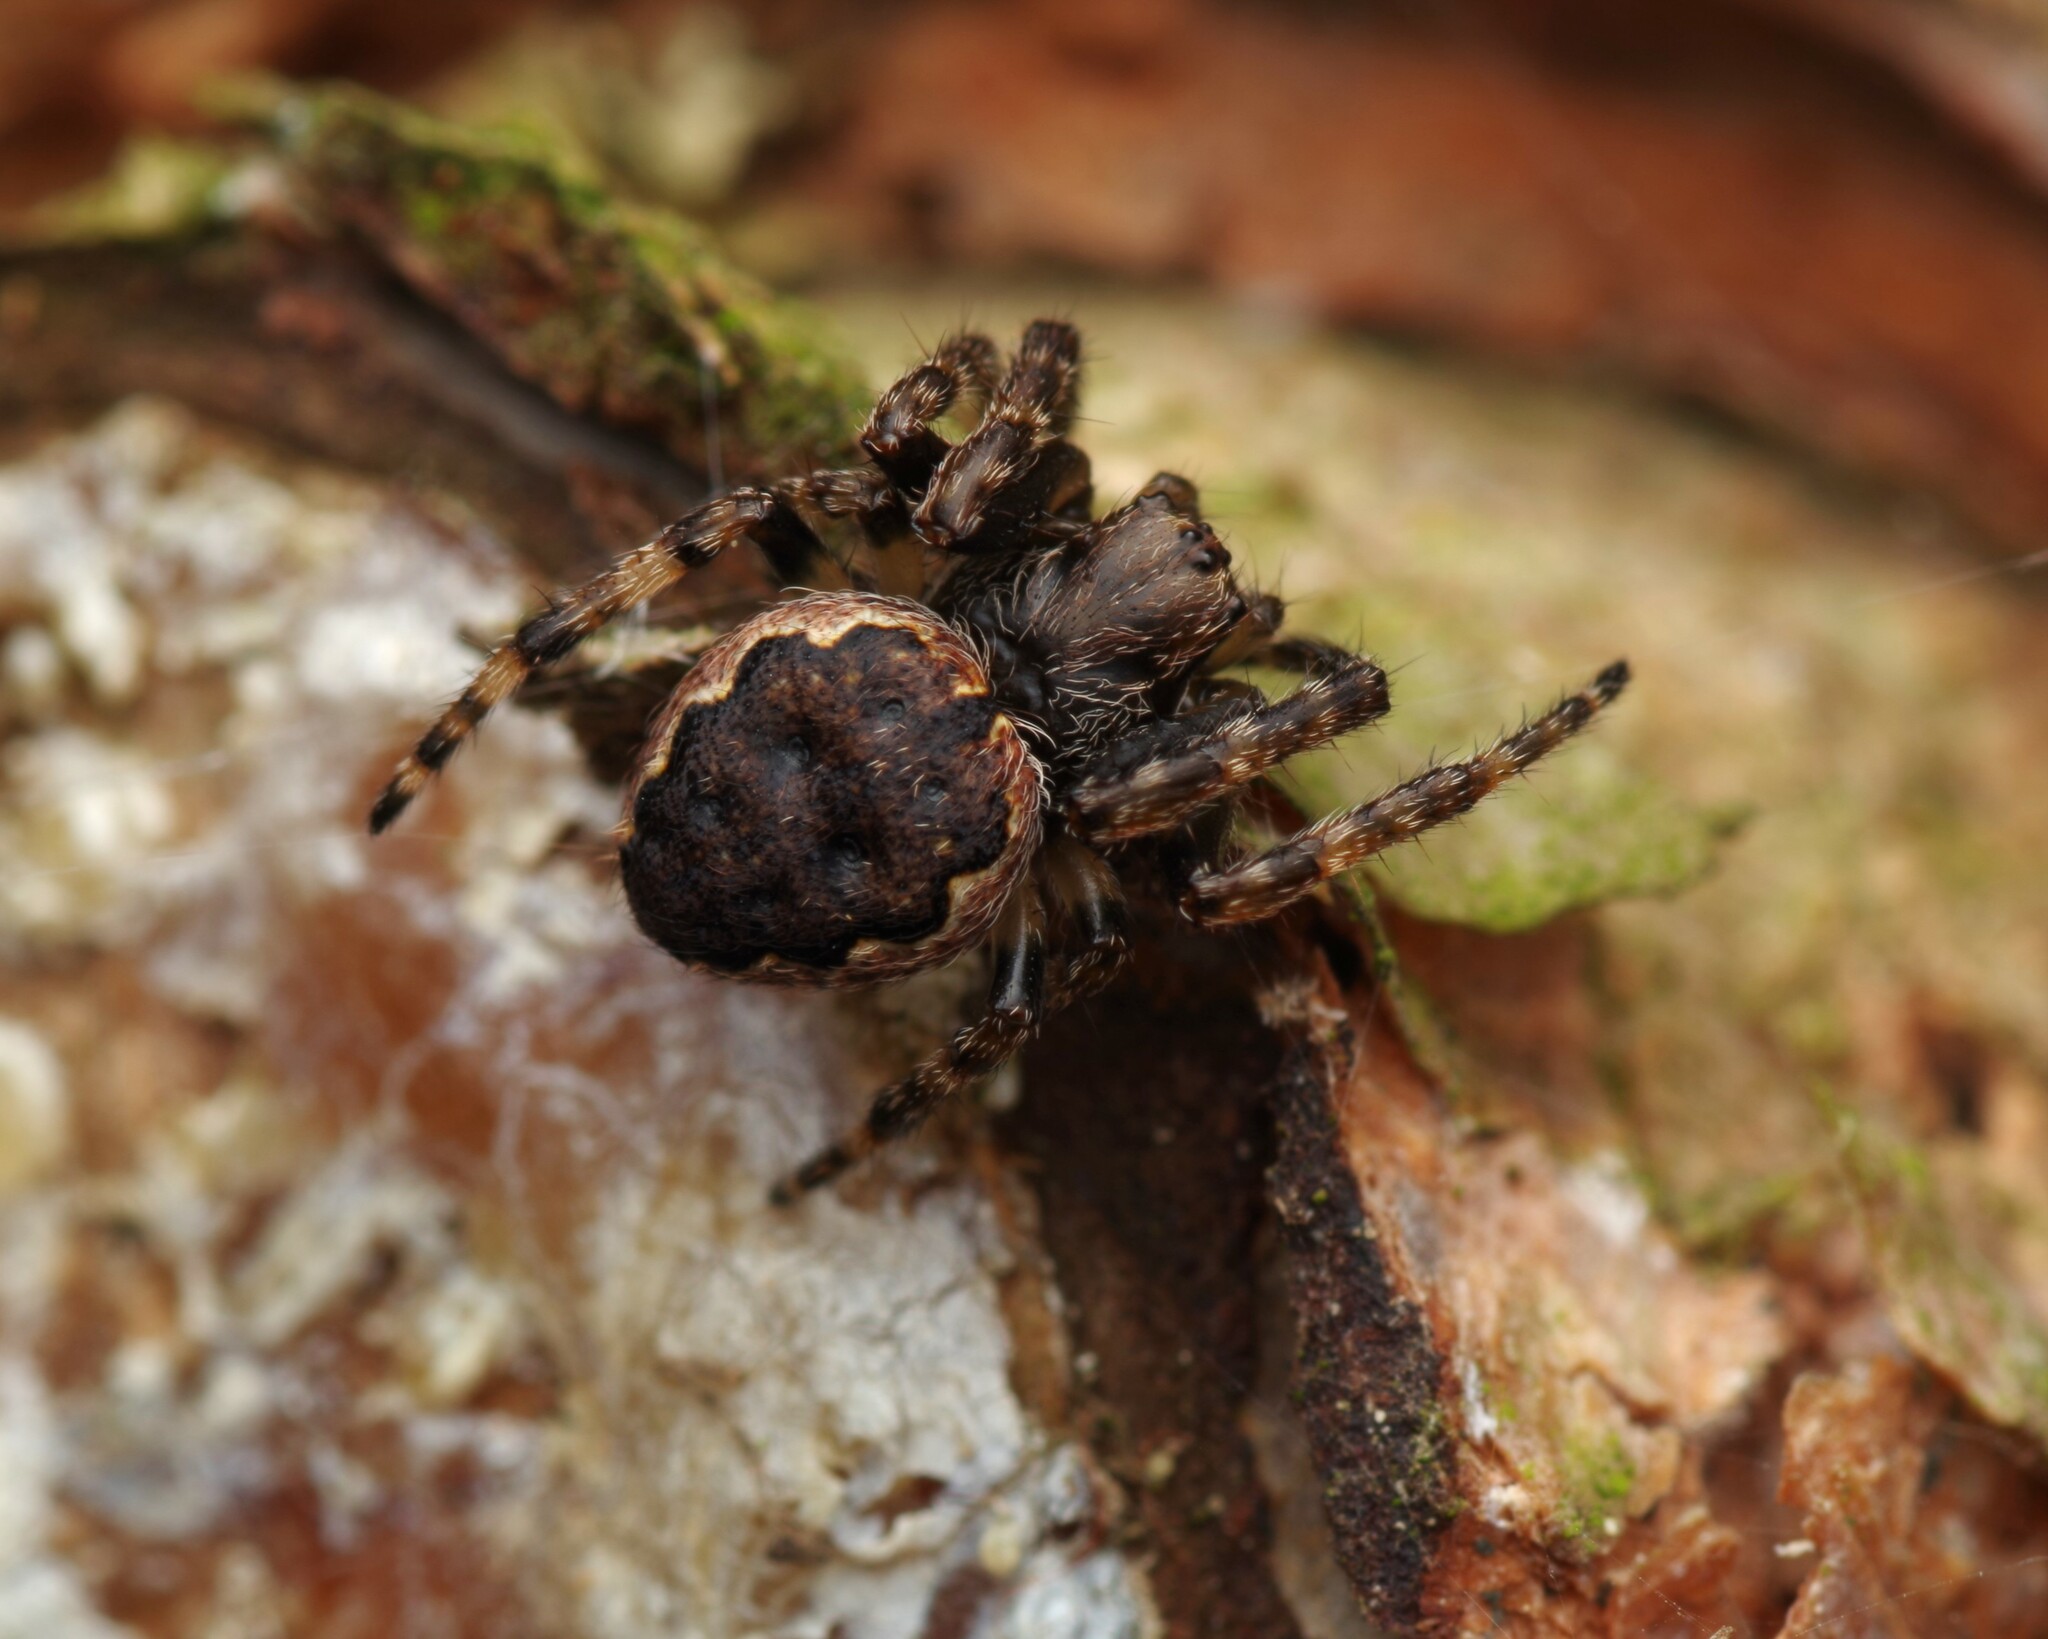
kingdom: Animalia
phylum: Arthropoda
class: Arachnida
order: Araneae
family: Araneidae
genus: Nuctenea
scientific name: Nuctenea umbratica
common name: Toad spider
